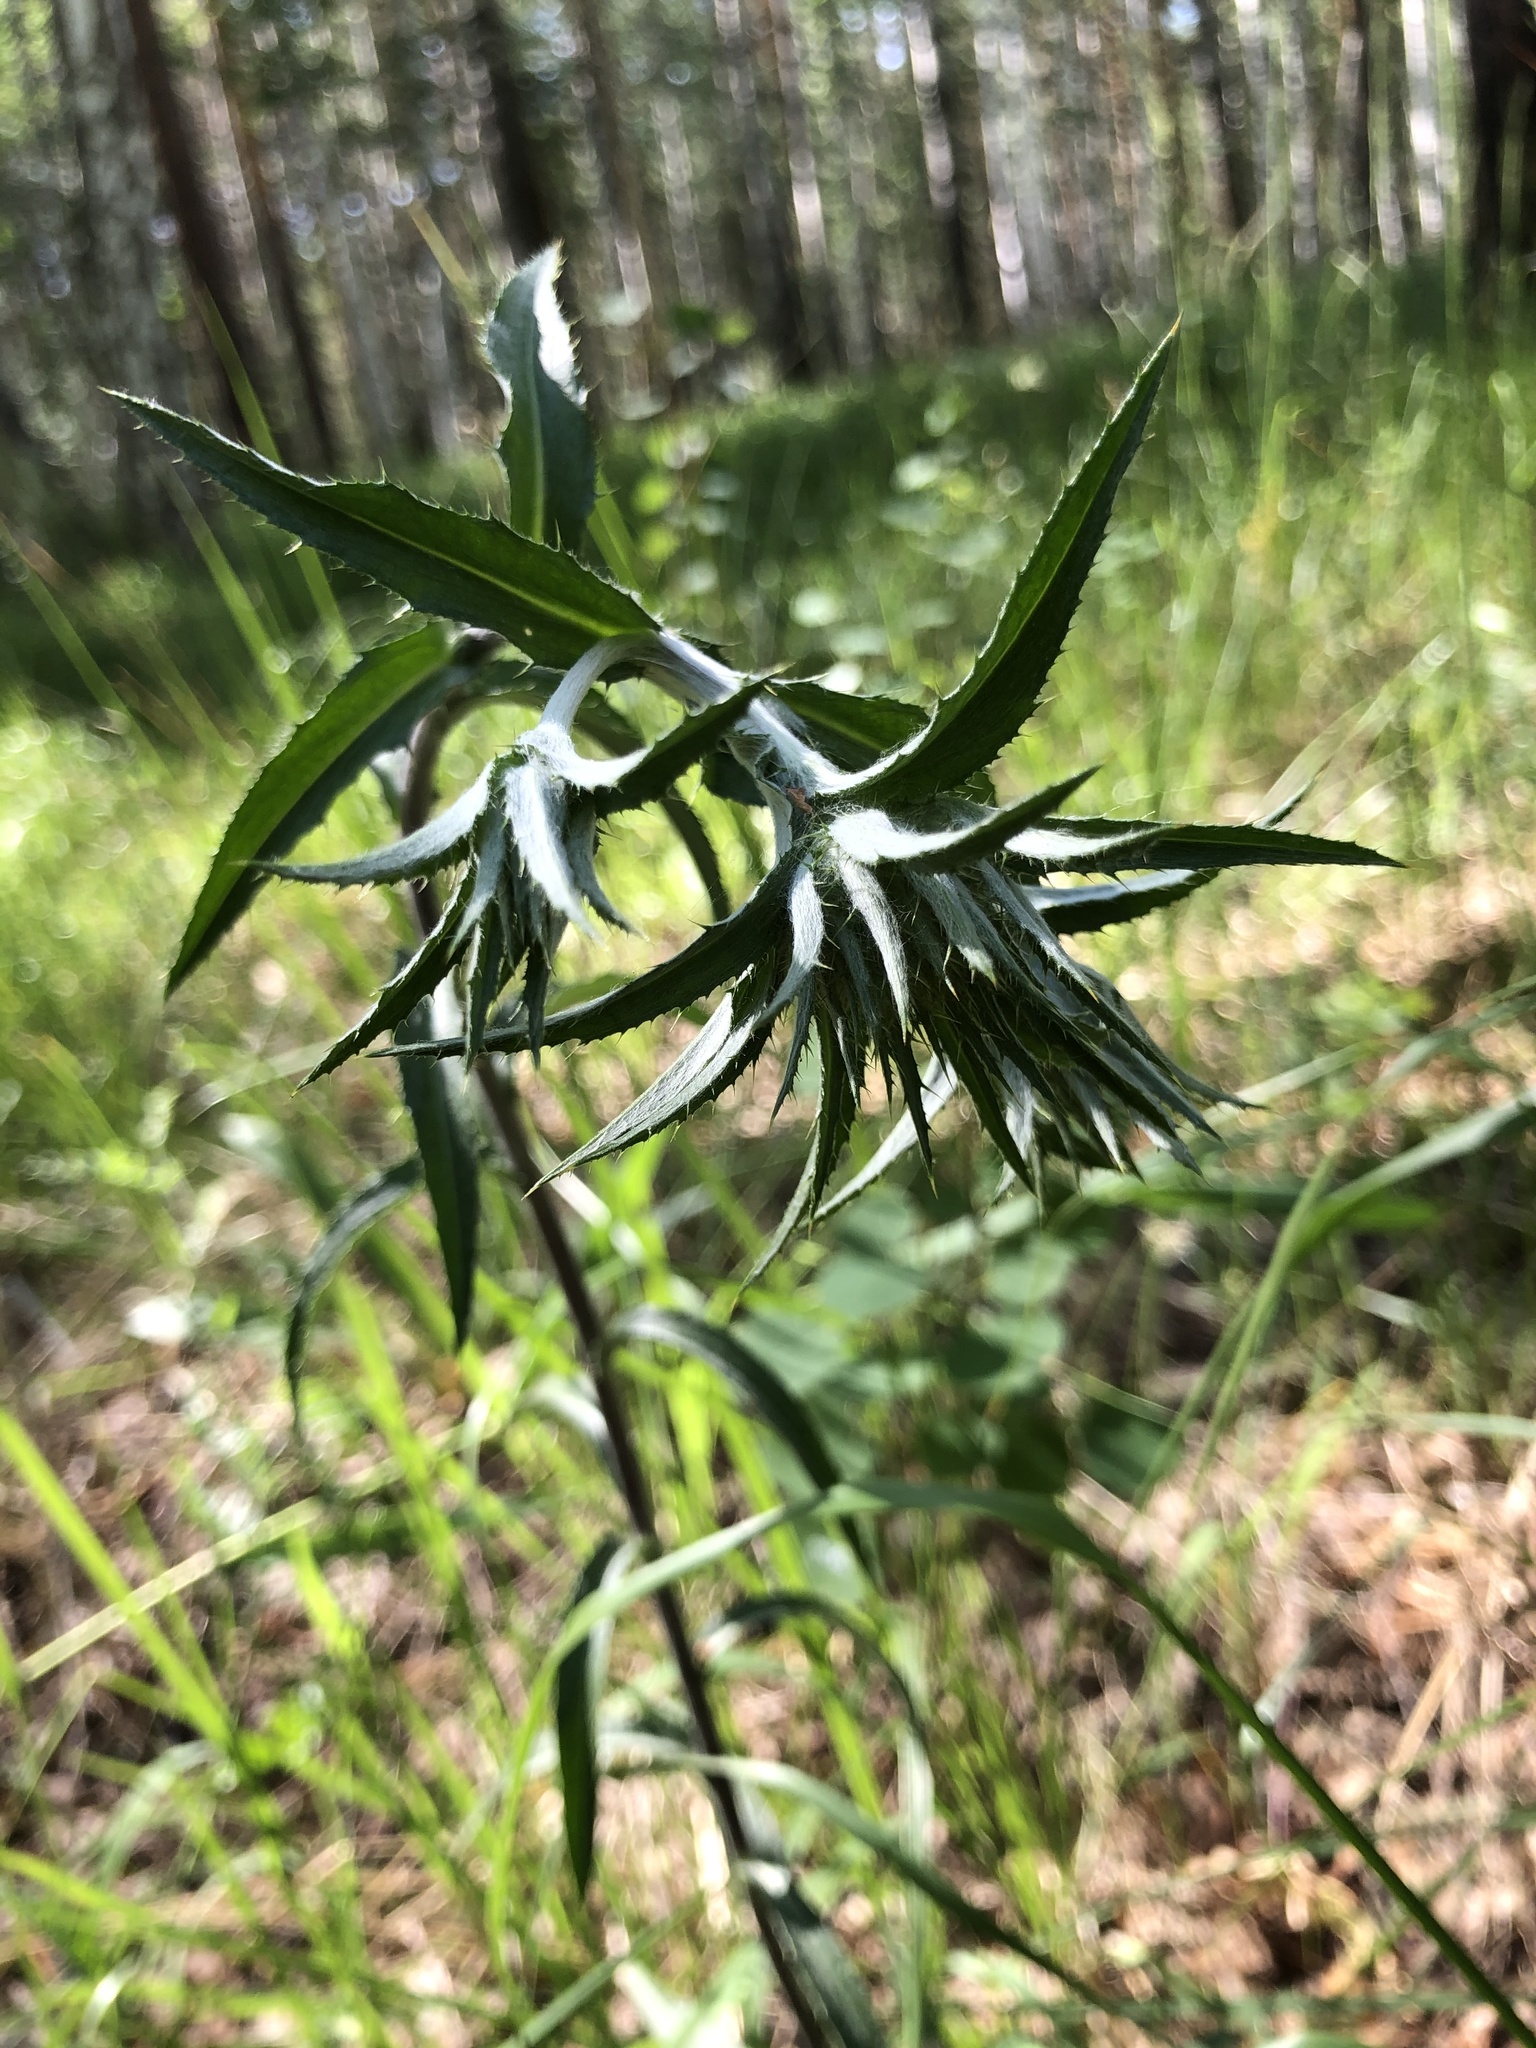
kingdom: Plantae
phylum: Tracheophyta
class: Magnoliopsida
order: Asterales
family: Asteraceae
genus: Carlina
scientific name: Carlina biebersteinii
